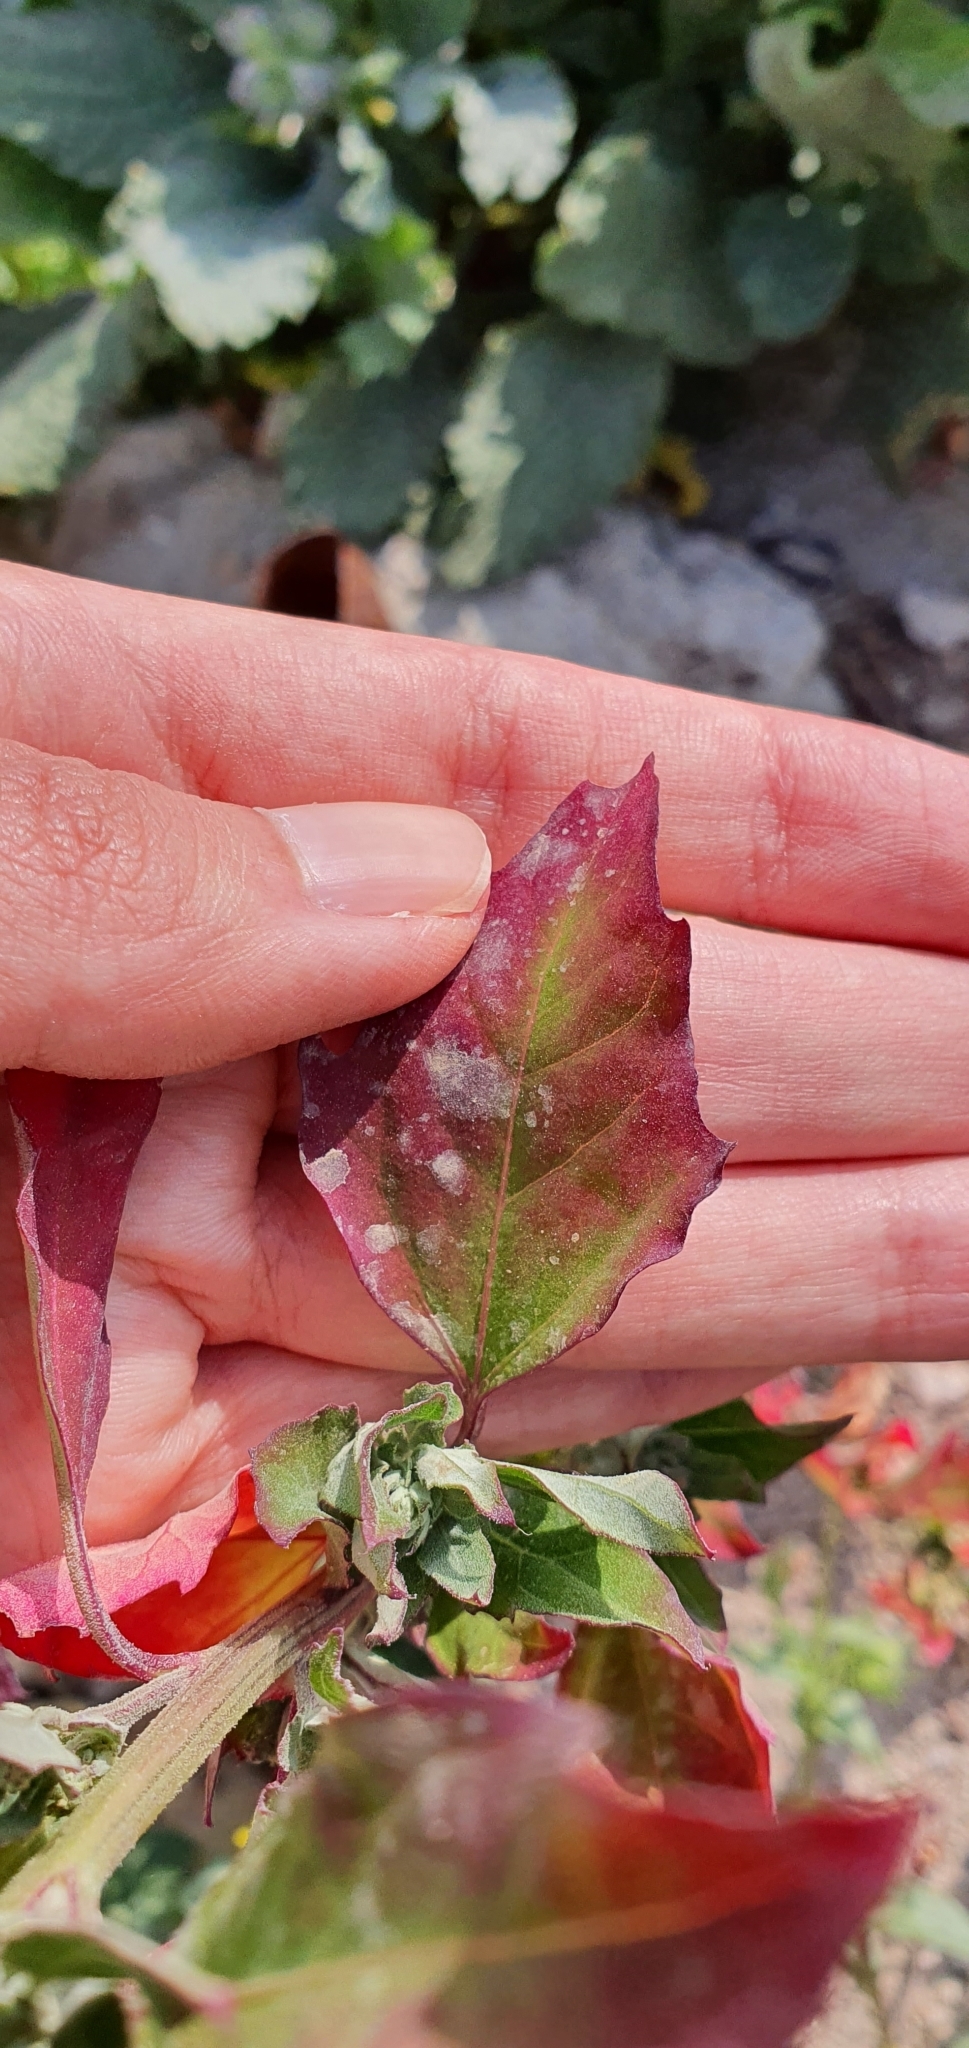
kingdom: Plantae
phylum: Tracheophyta
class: Magnoliopsida
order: Caryophyllales
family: Amaranthaceae
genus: Chenopodium
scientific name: Chenopodium album
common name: Fat-hen
